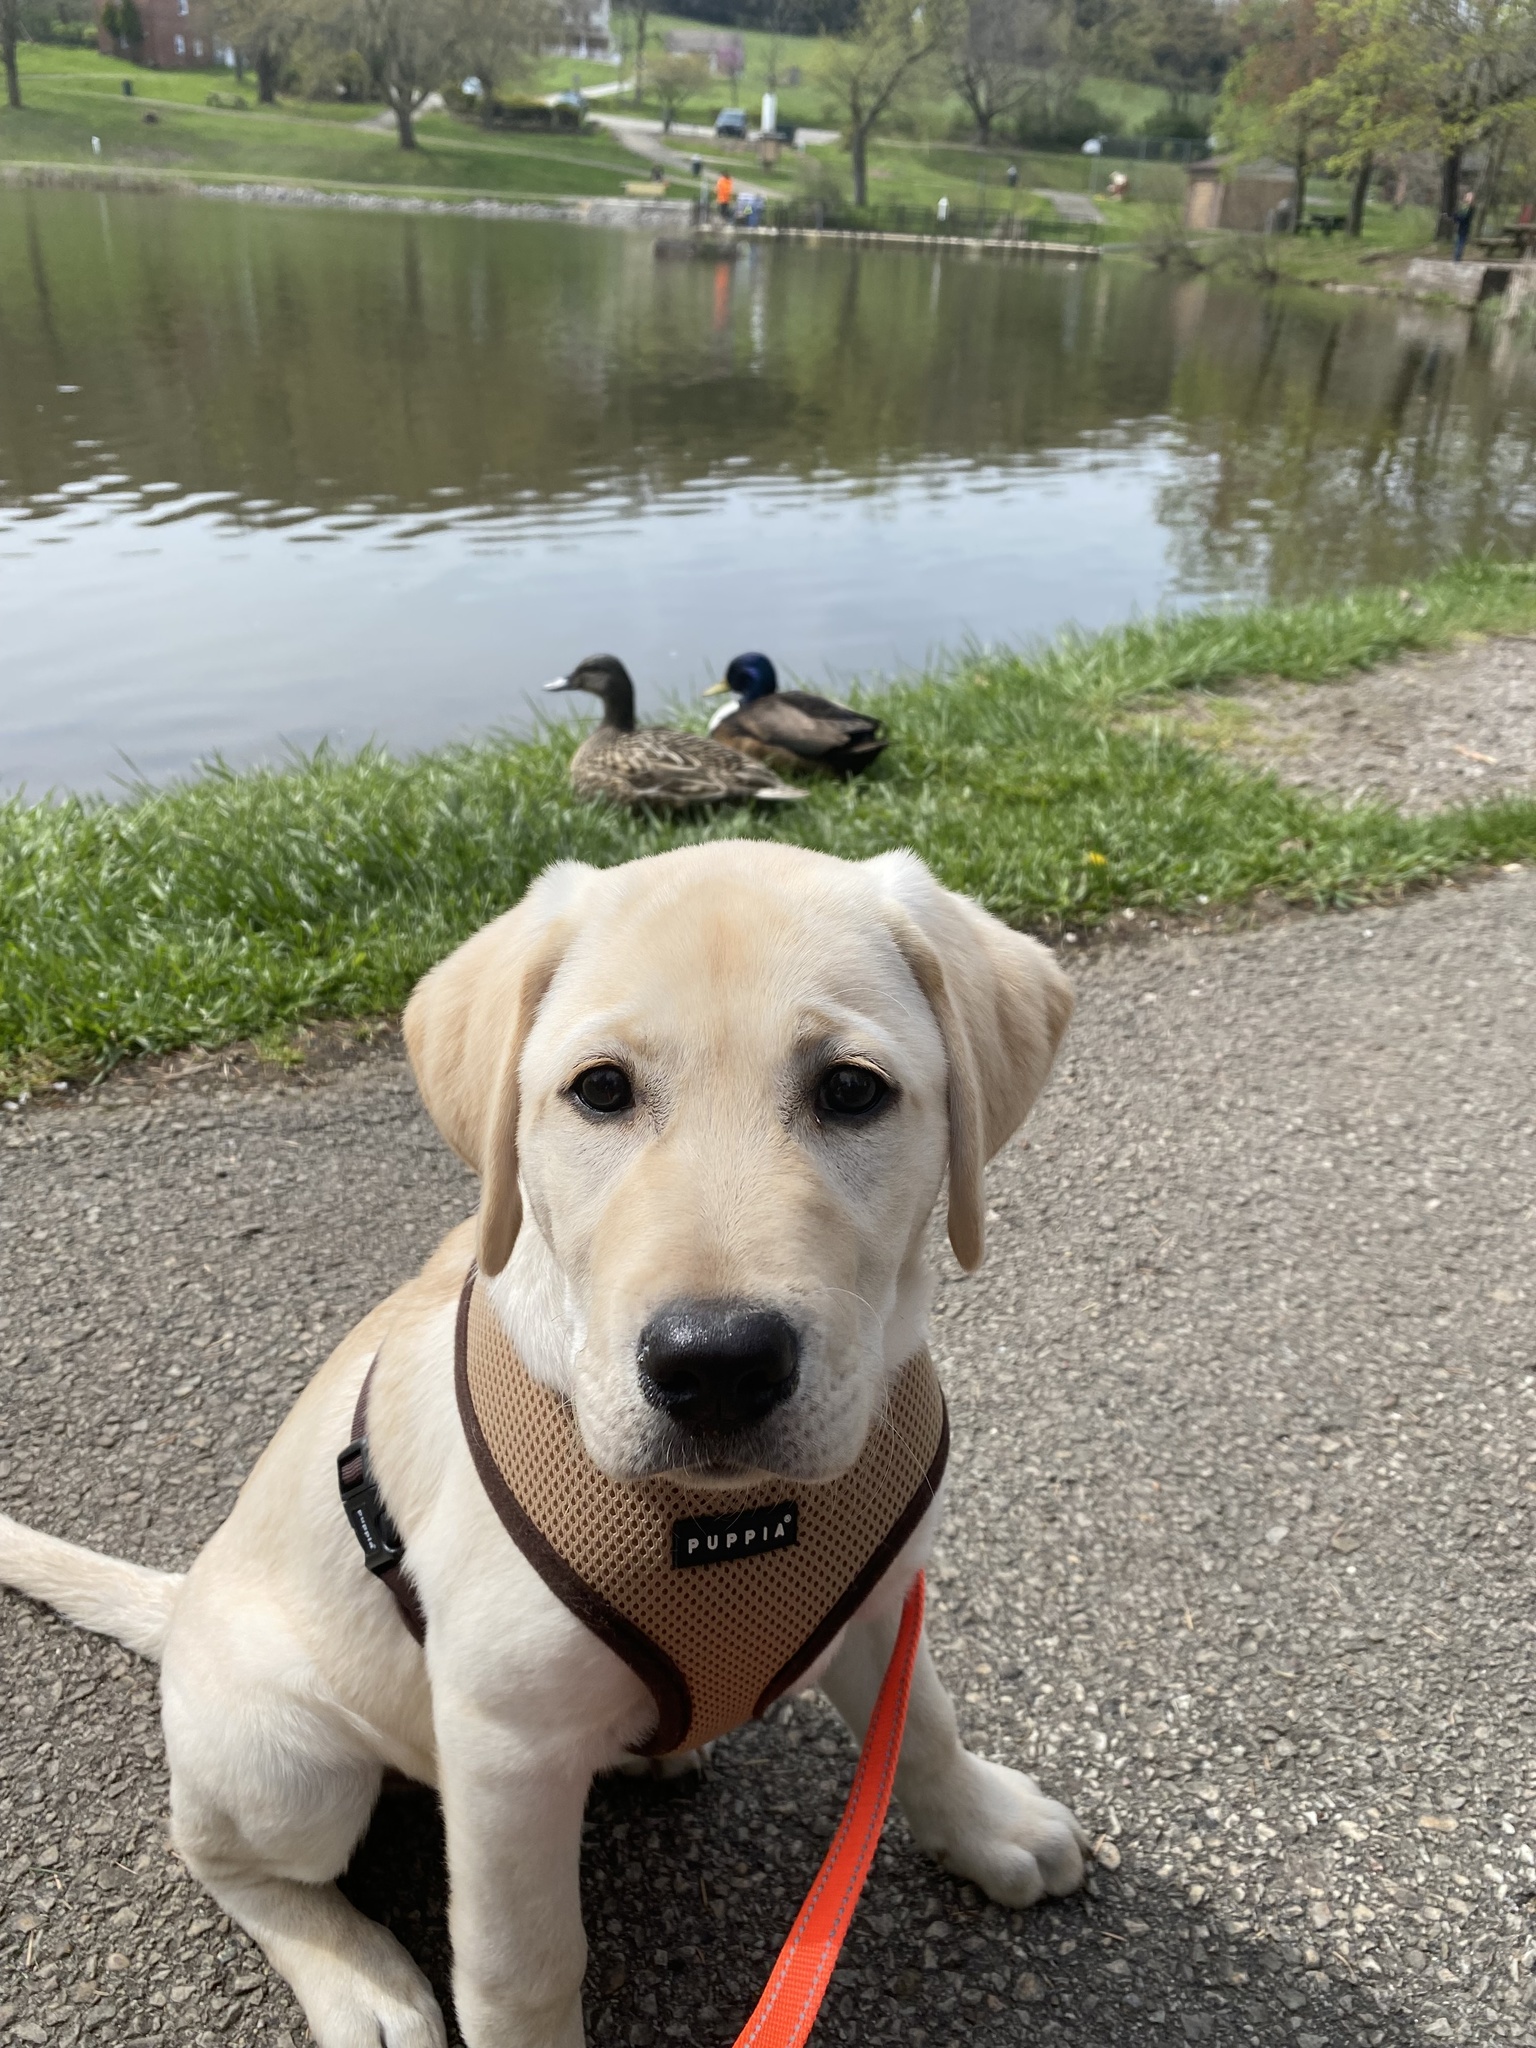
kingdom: Animalia
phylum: Chordata
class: Aves
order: Anseriformes
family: Anatidae
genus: Anas
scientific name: Anas platyrhynchos
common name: Mallard
